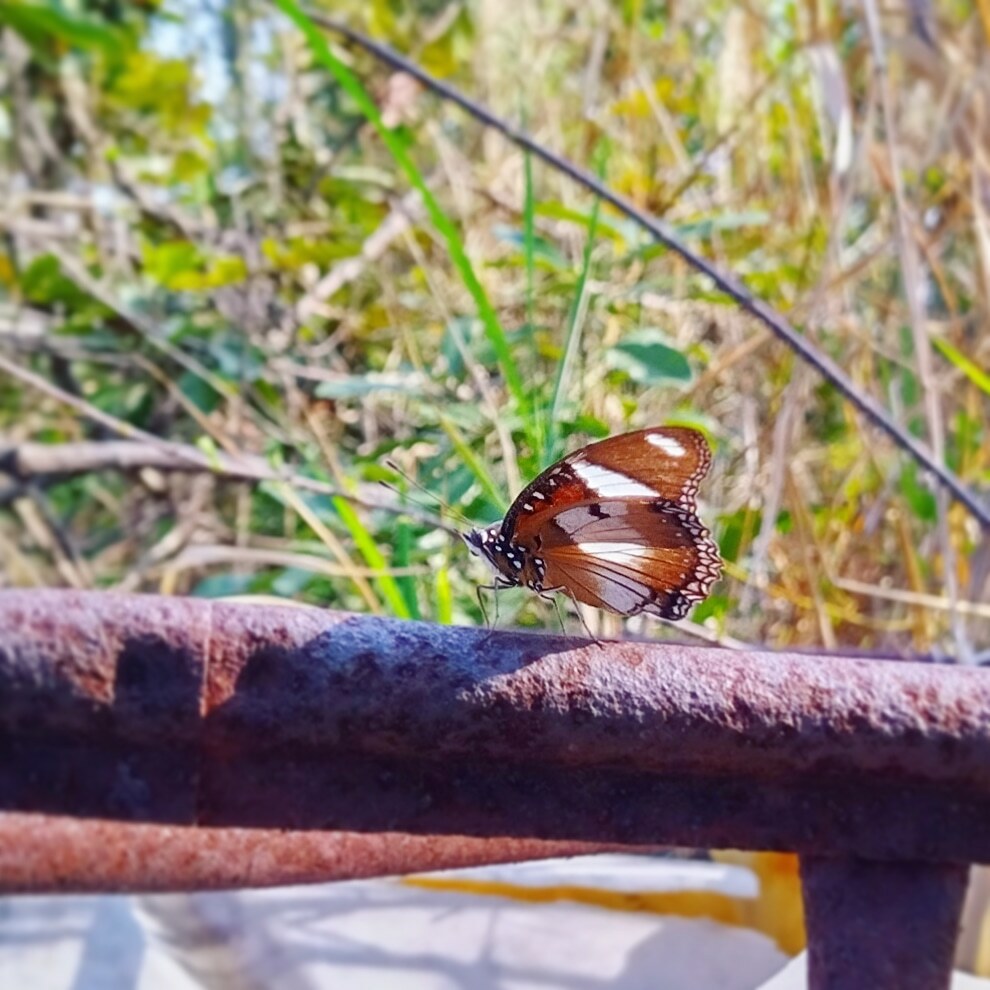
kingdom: Animalia
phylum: Arthropoda
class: Insecta
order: Lepidoptera
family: Nymphalidae
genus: Hypolimnas
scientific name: Hypolimnas misippus
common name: False plain tiger
